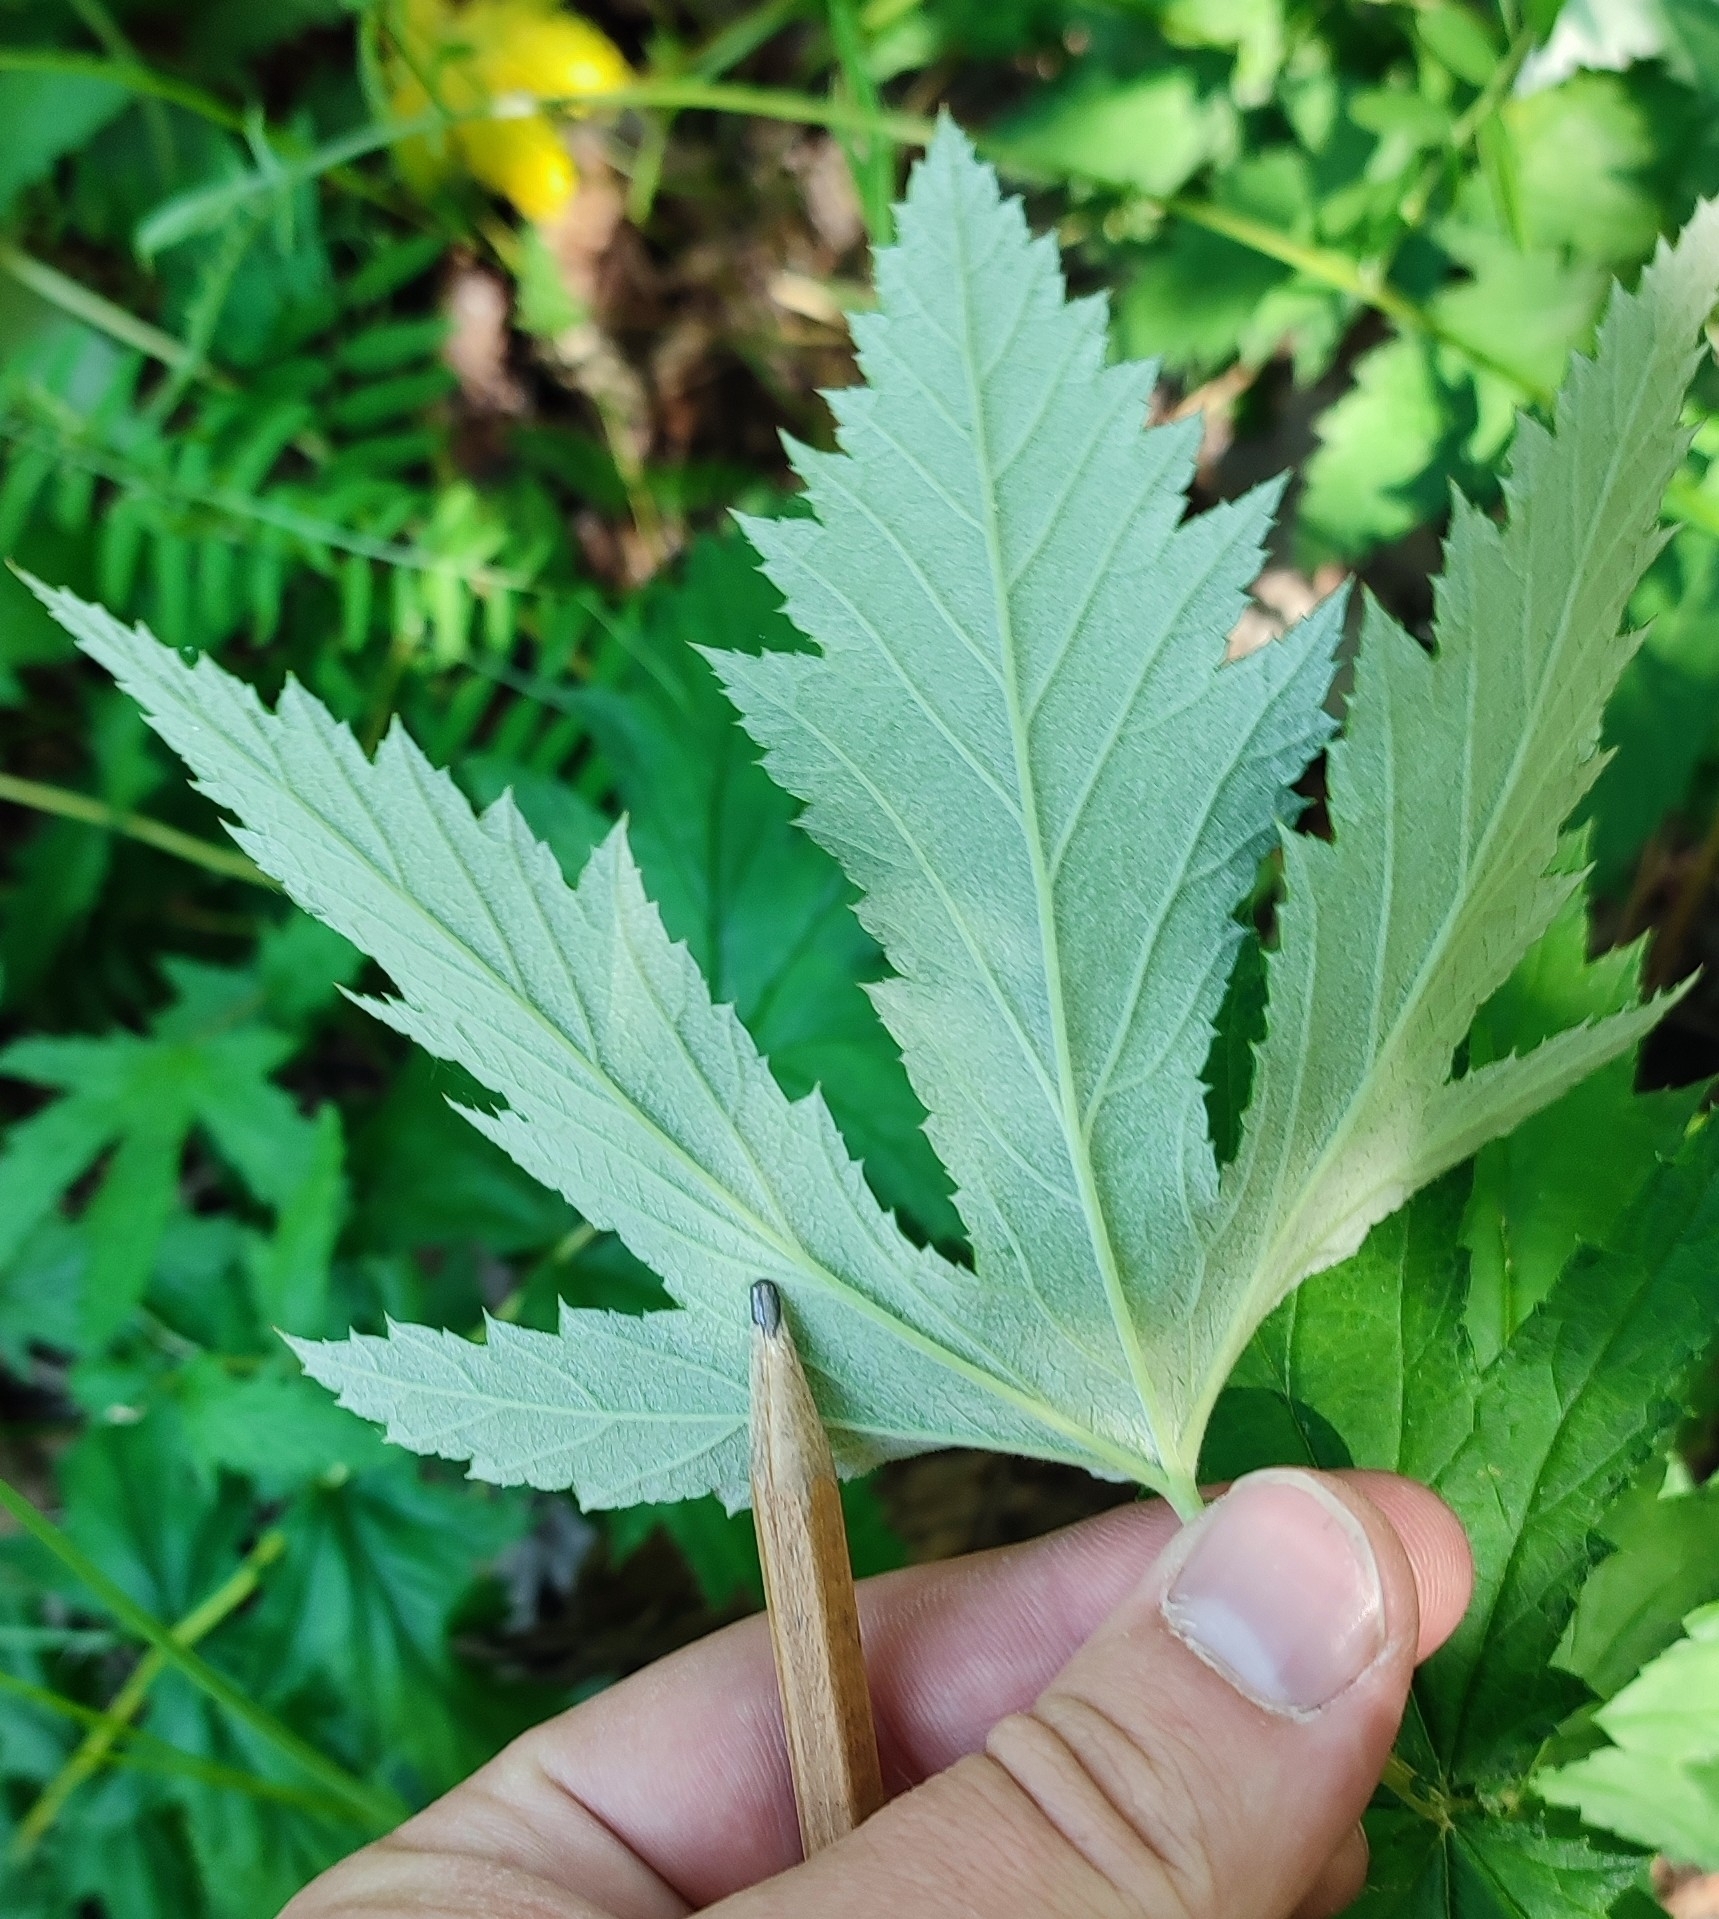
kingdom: Plantae
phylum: Tracheophyta
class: Magnoliopsida
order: Rosales
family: Rosaceae
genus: Filipendula
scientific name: Filipendula ulmaria
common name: Meadowsweet
